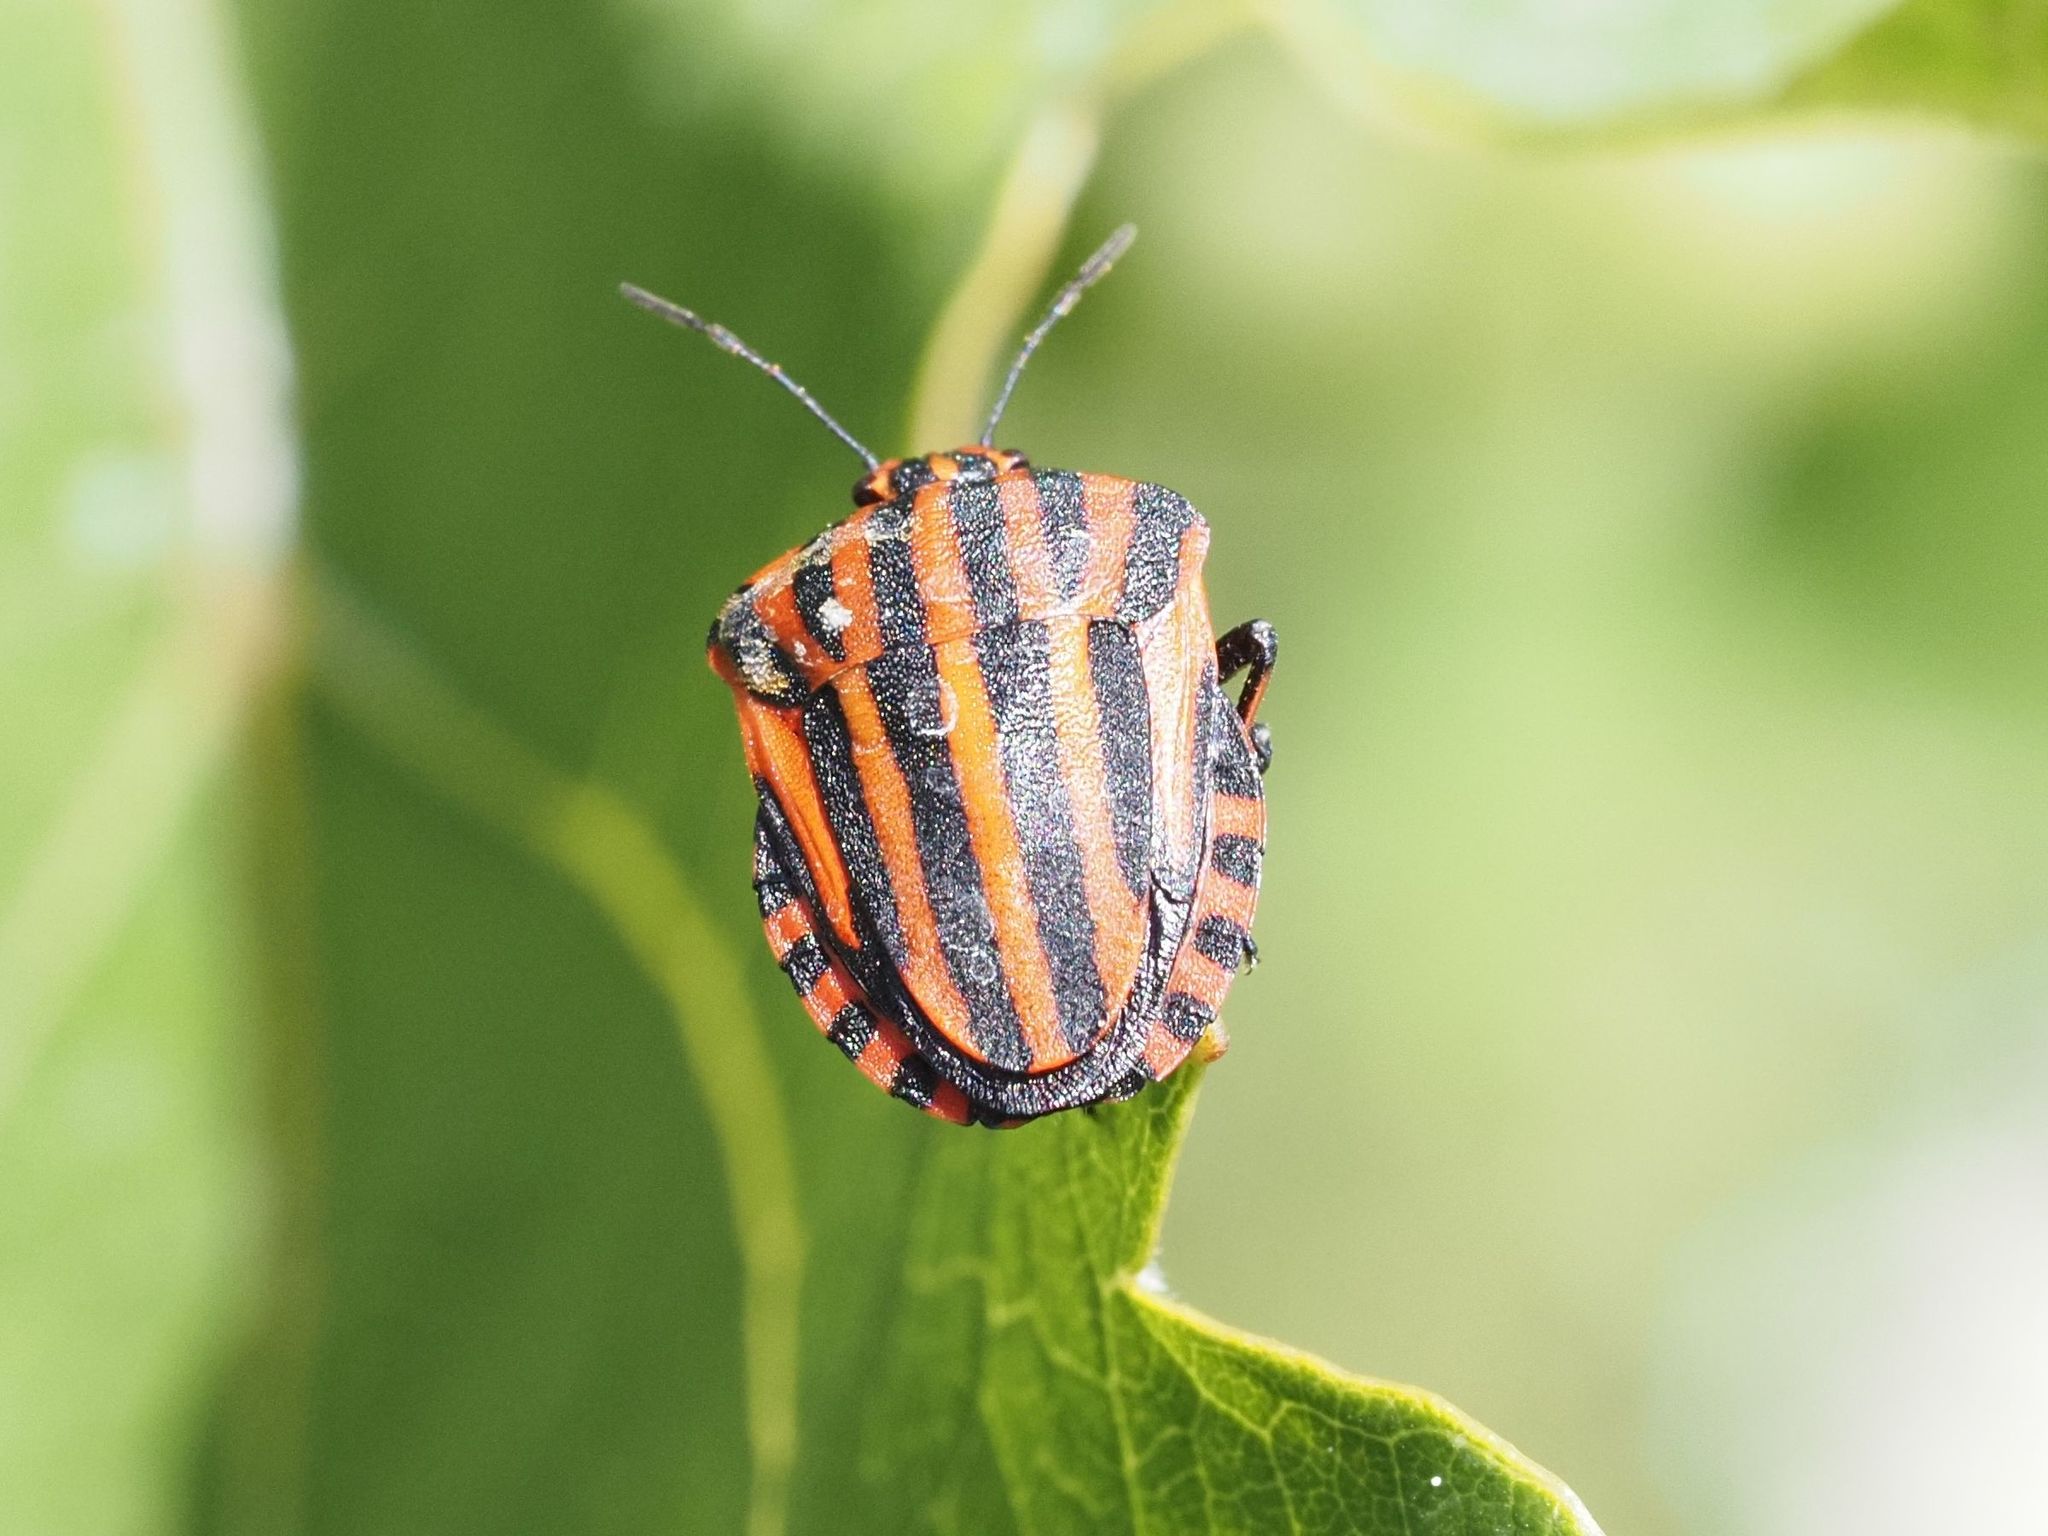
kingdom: Animalia
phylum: Arthropoda
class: Insecta
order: Hemiptera
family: Pentatomidae
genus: Graphosoma
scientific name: Graphosoma italicum
